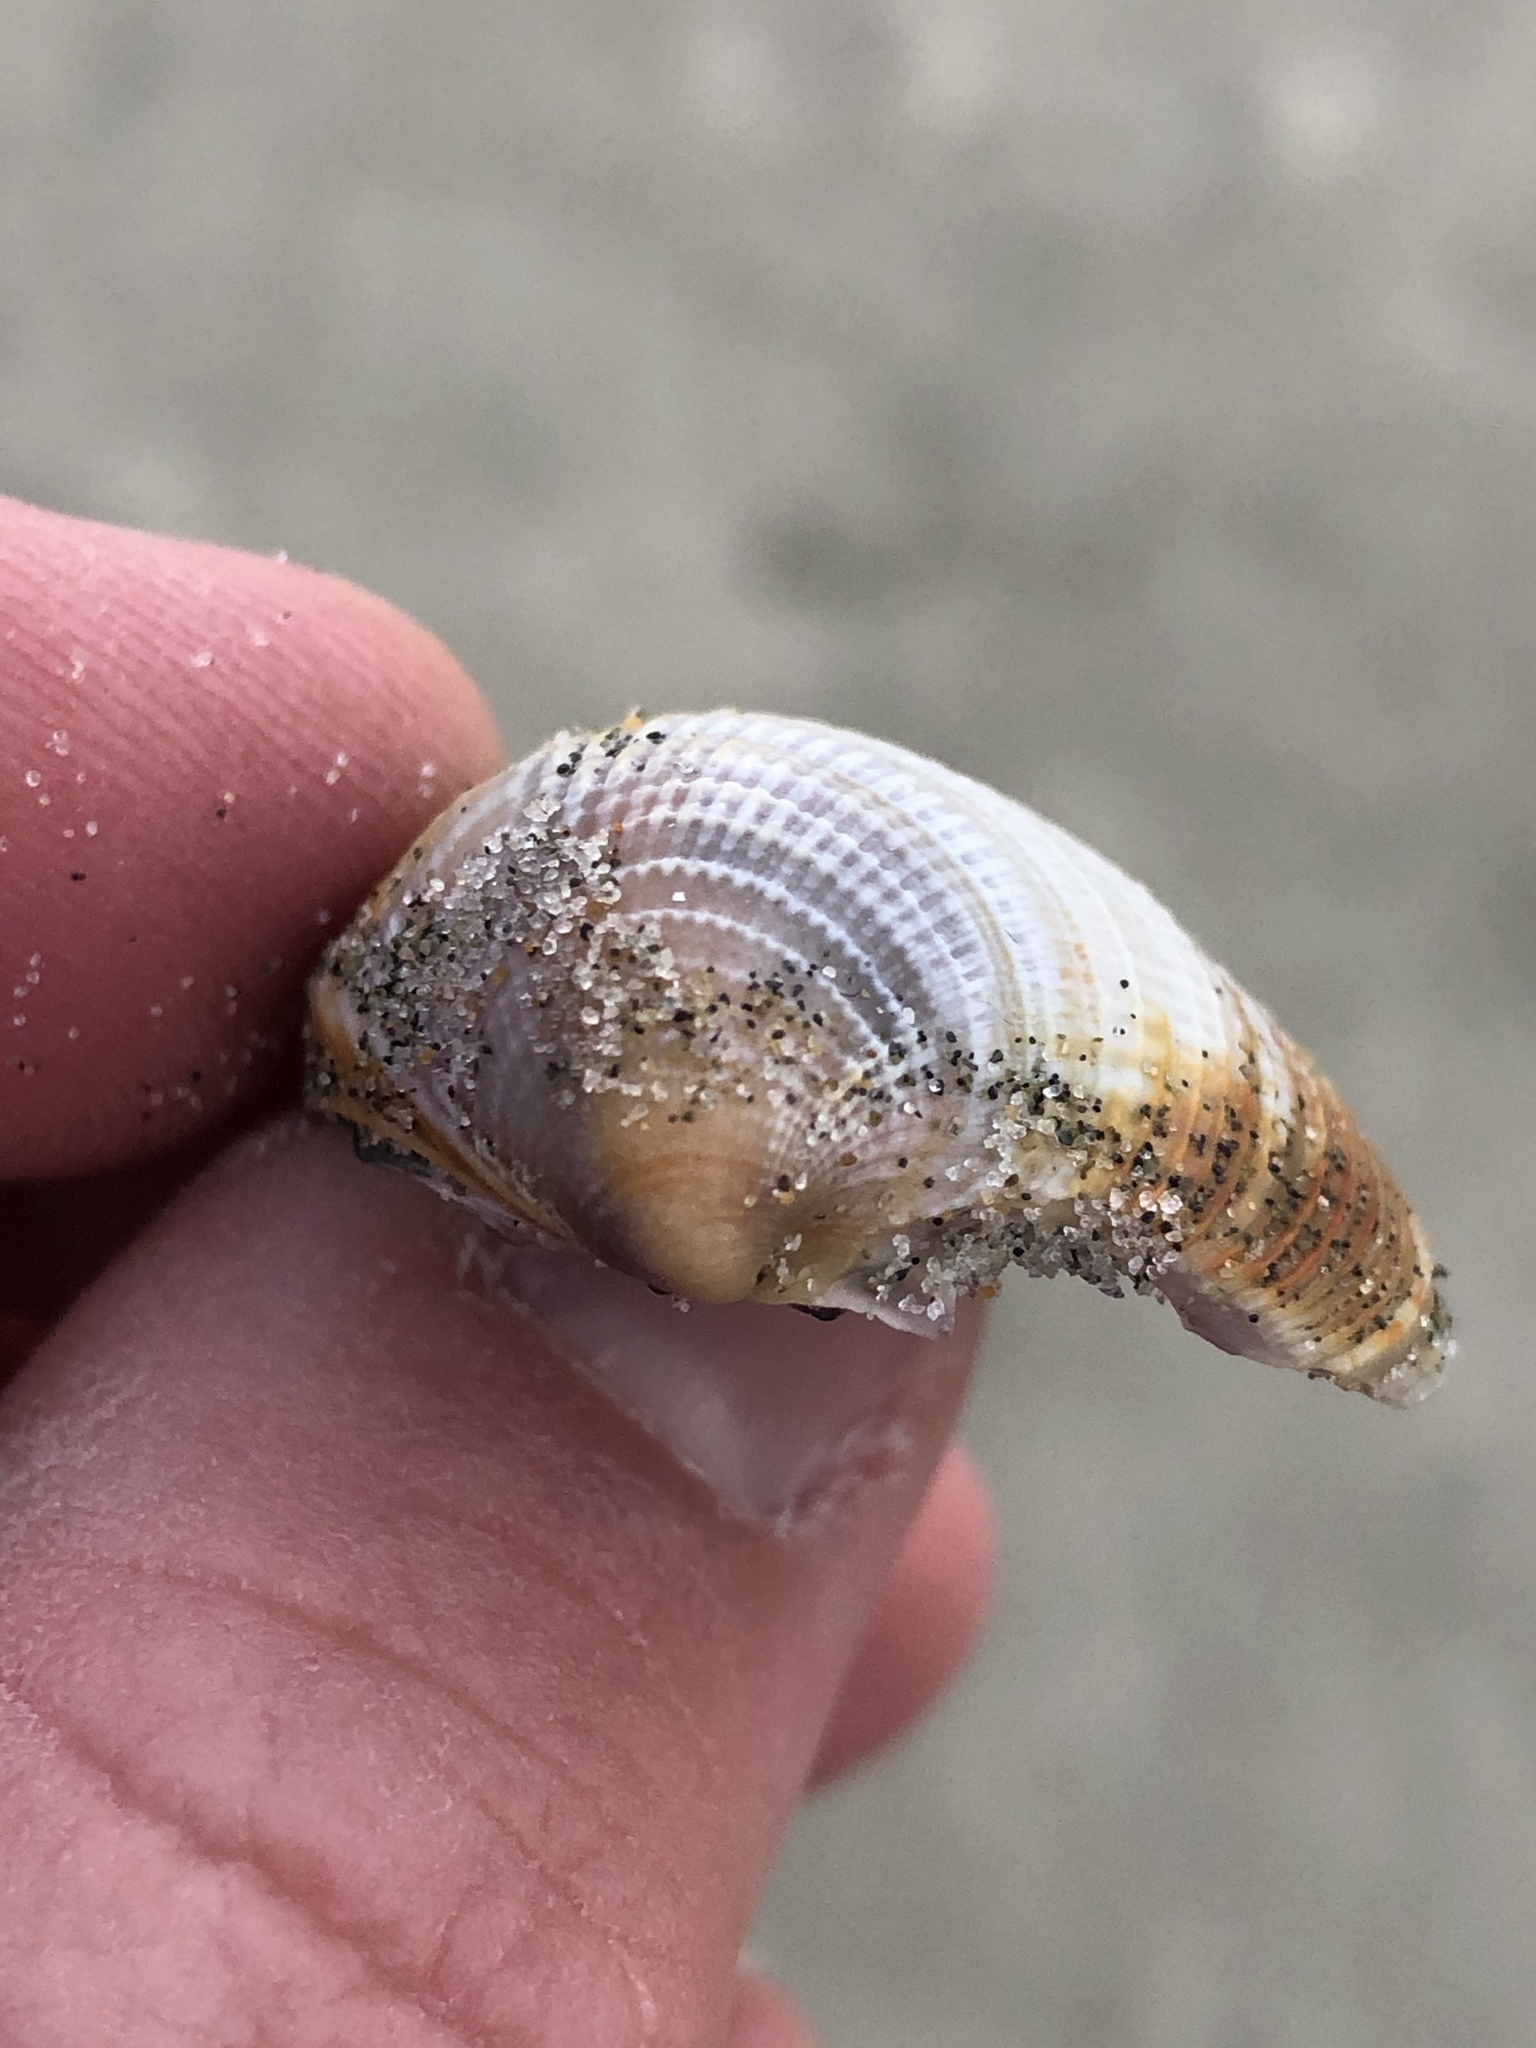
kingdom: Animalia
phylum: Mollusca
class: Bivalvia
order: Venerida
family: Veneridae
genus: Austrovenus
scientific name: Austrovenus stutchburyi
